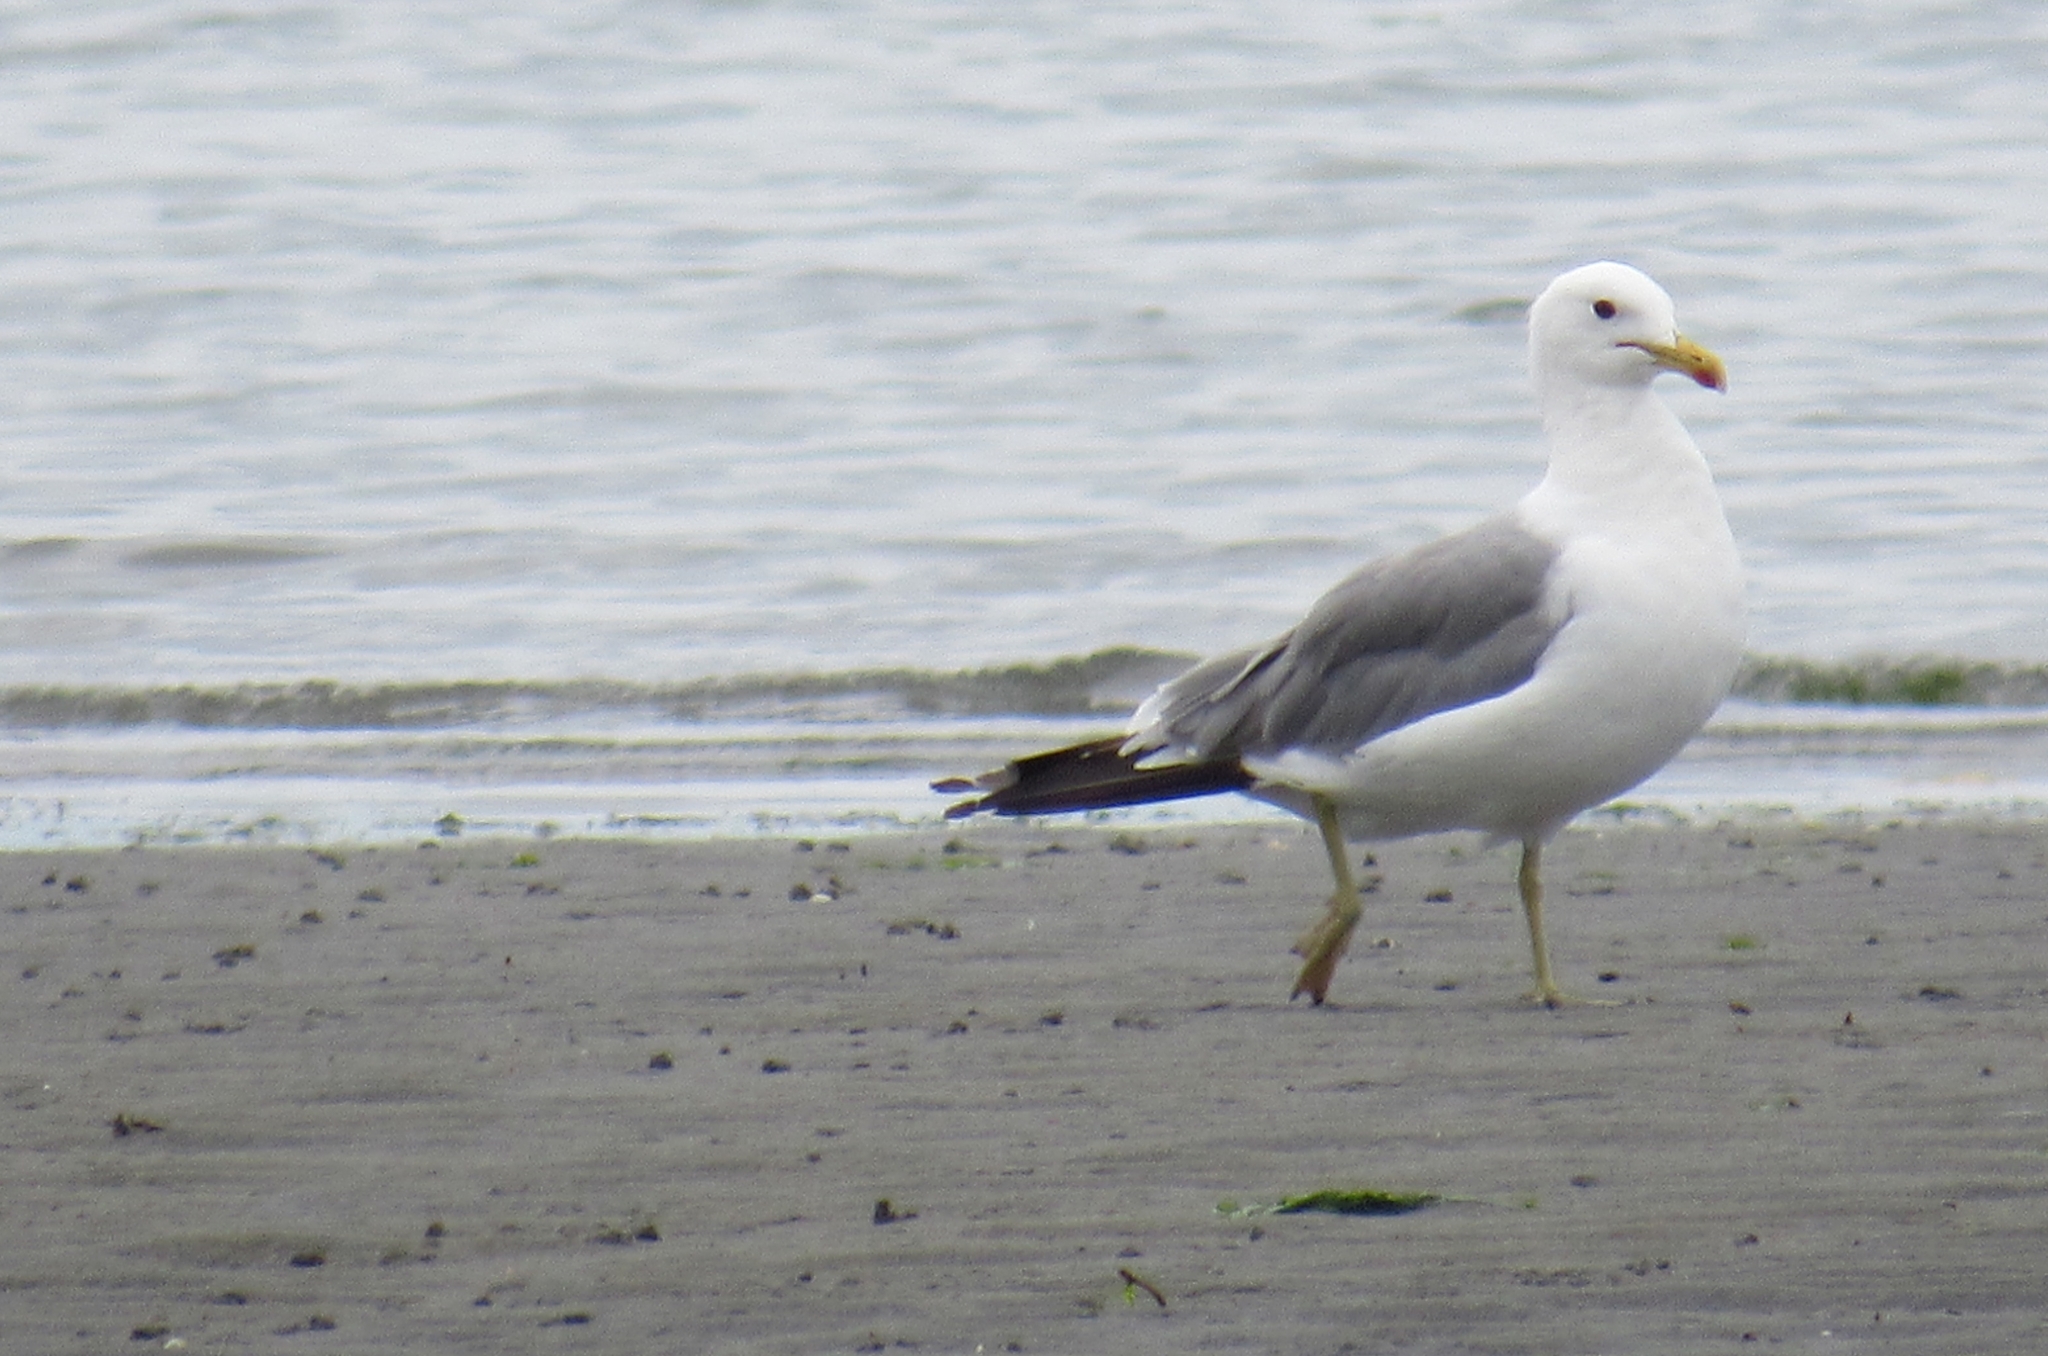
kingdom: Animalia
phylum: Chordata
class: Aves
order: Charadriiformes
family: Laridae
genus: Larus
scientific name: Larus californicus
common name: California gull
